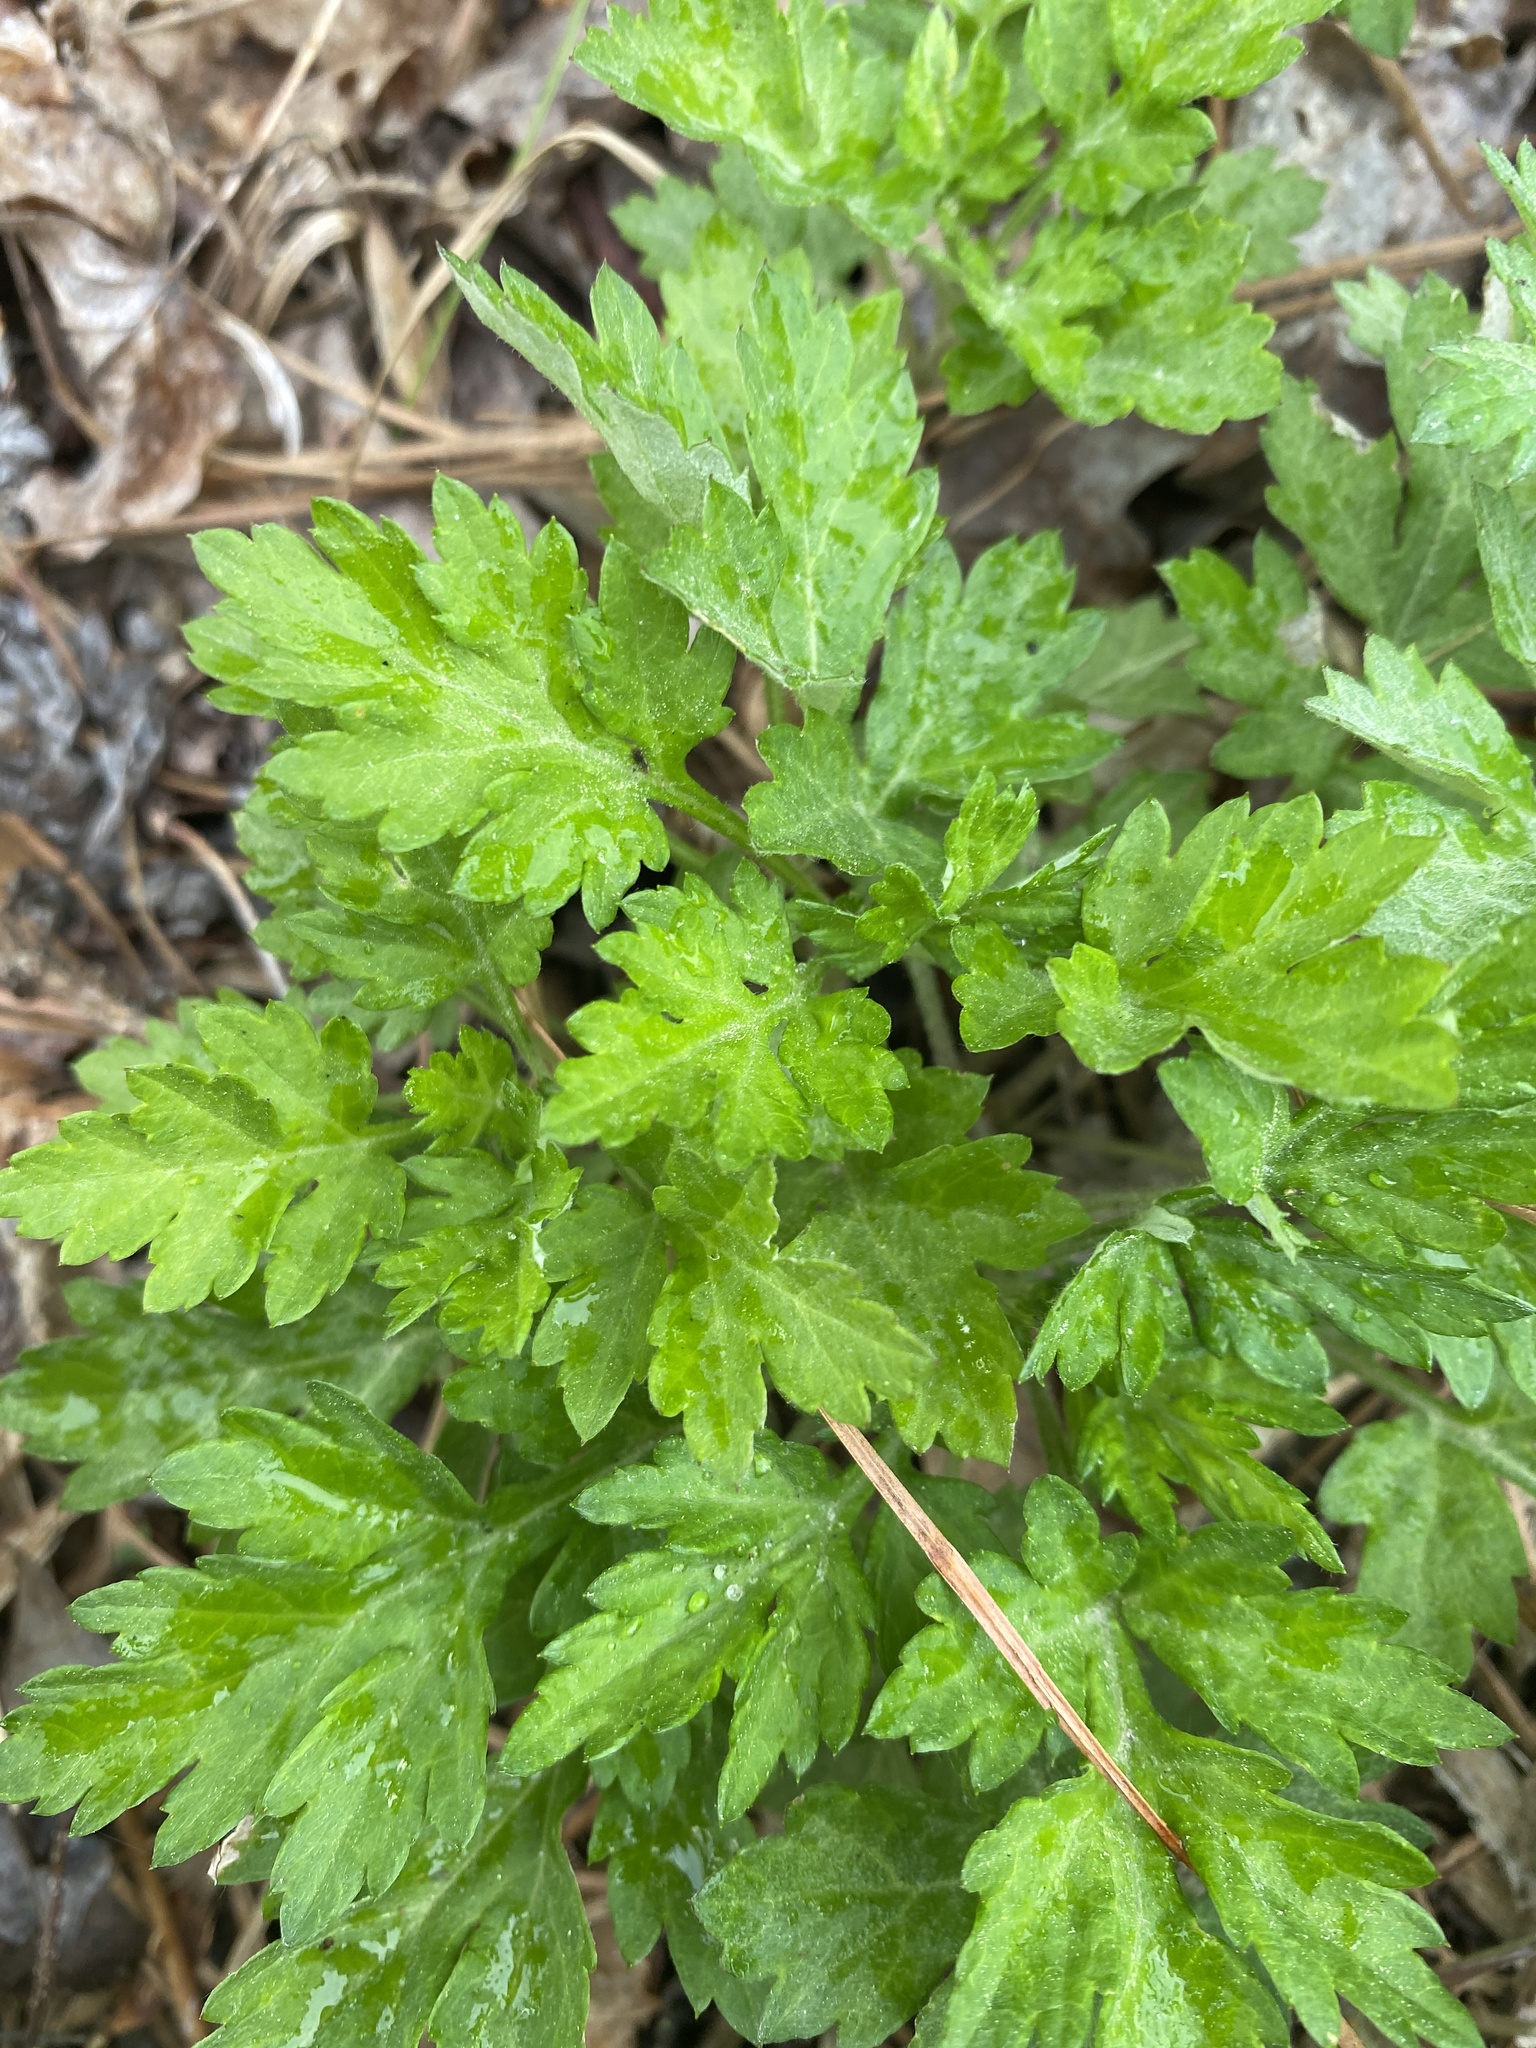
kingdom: Plantae
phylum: Tracheophyta
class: Magnoliopsida
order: Asterales
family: Asteraceae
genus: Artemisia
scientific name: Artemisia vulgaris
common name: Mugwort
